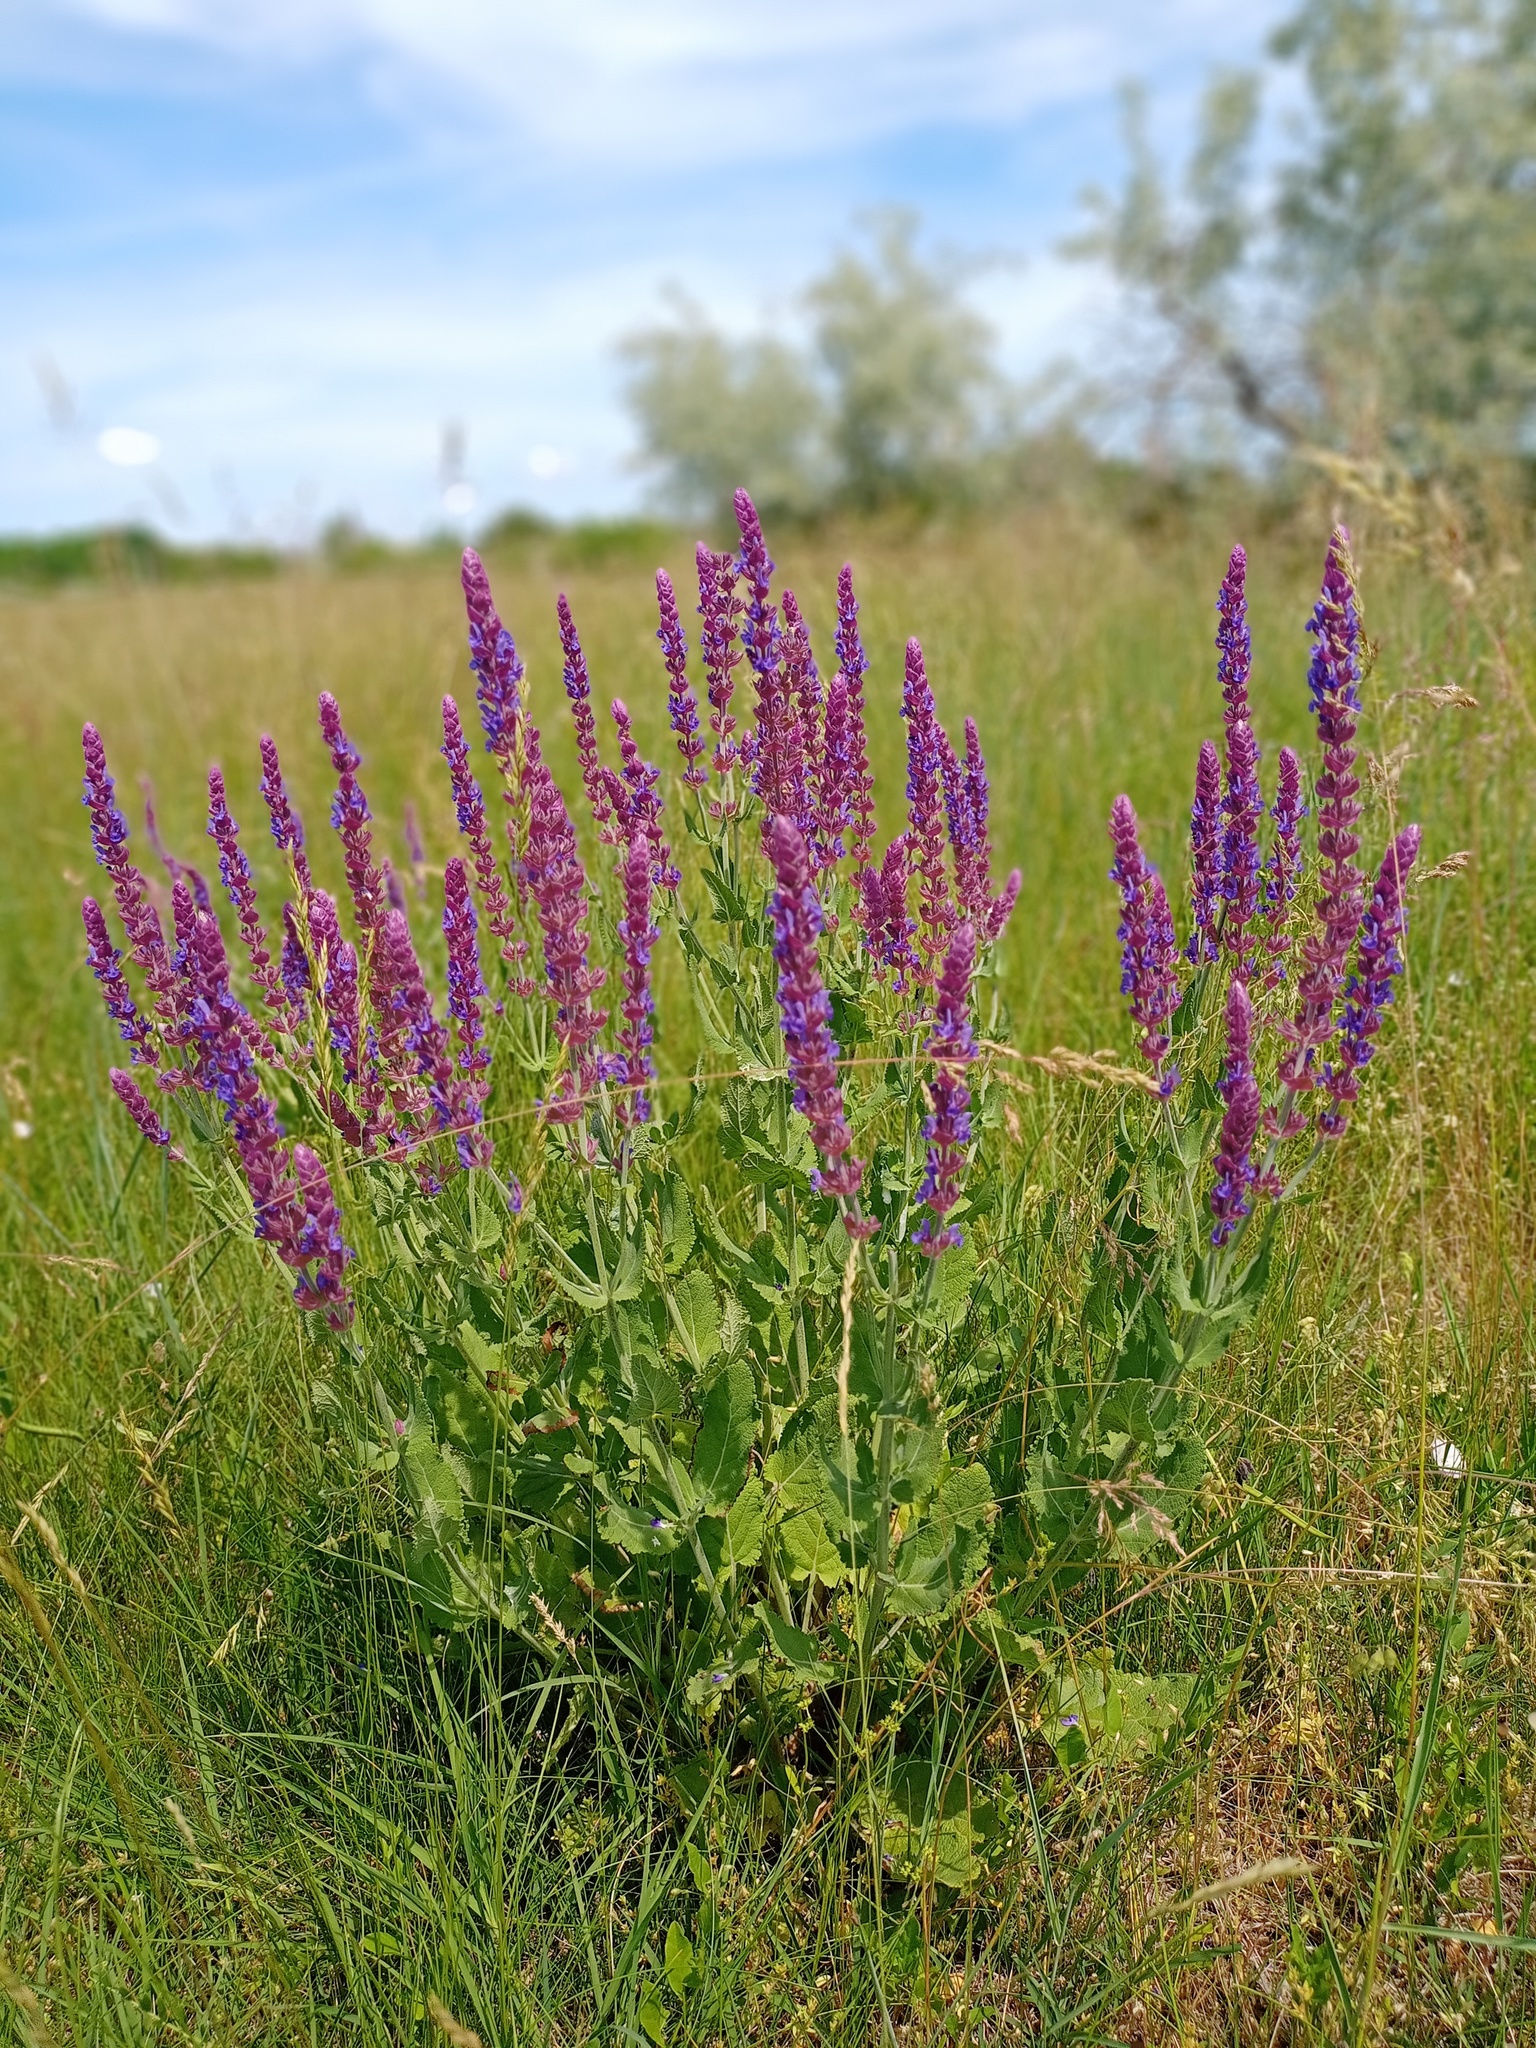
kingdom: Plantae
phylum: Tracheophyta
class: Magnoliopsida
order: Lamiales
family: Lamiaceae
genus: Salvia
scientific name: Salvia nemorosa
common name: Balkan clary
